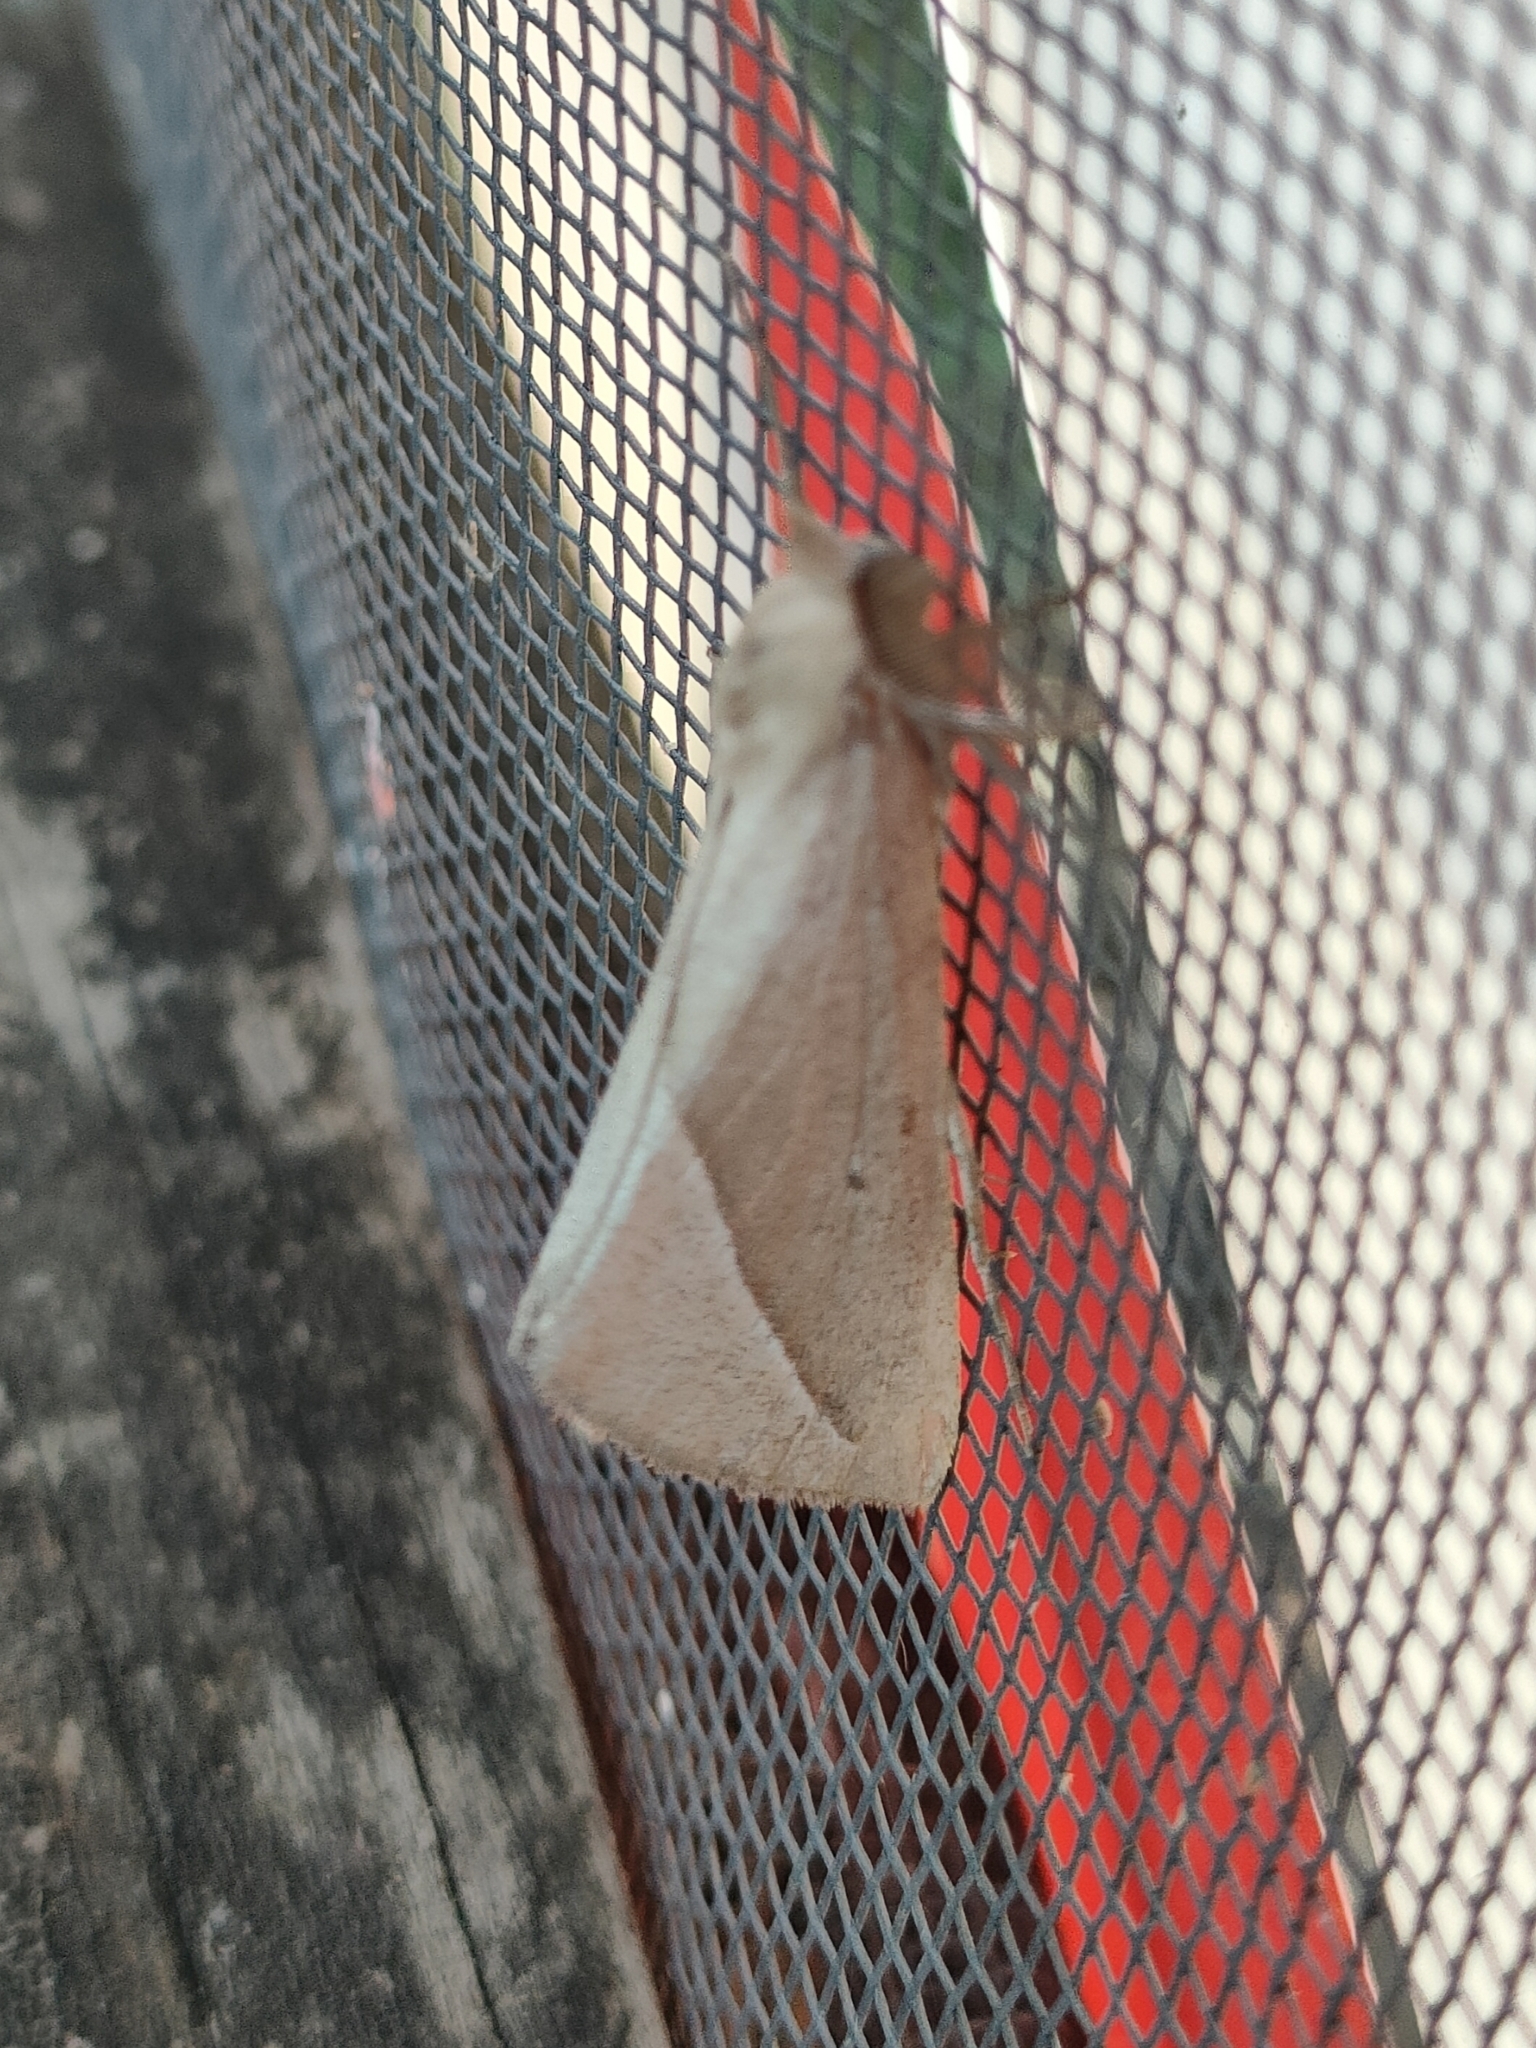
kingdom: Animalia
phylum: Arthropoda
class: Insecta
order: Lepidoptera
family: Geometridae
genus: Compsoptera
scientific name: Compsoptera opacaria
